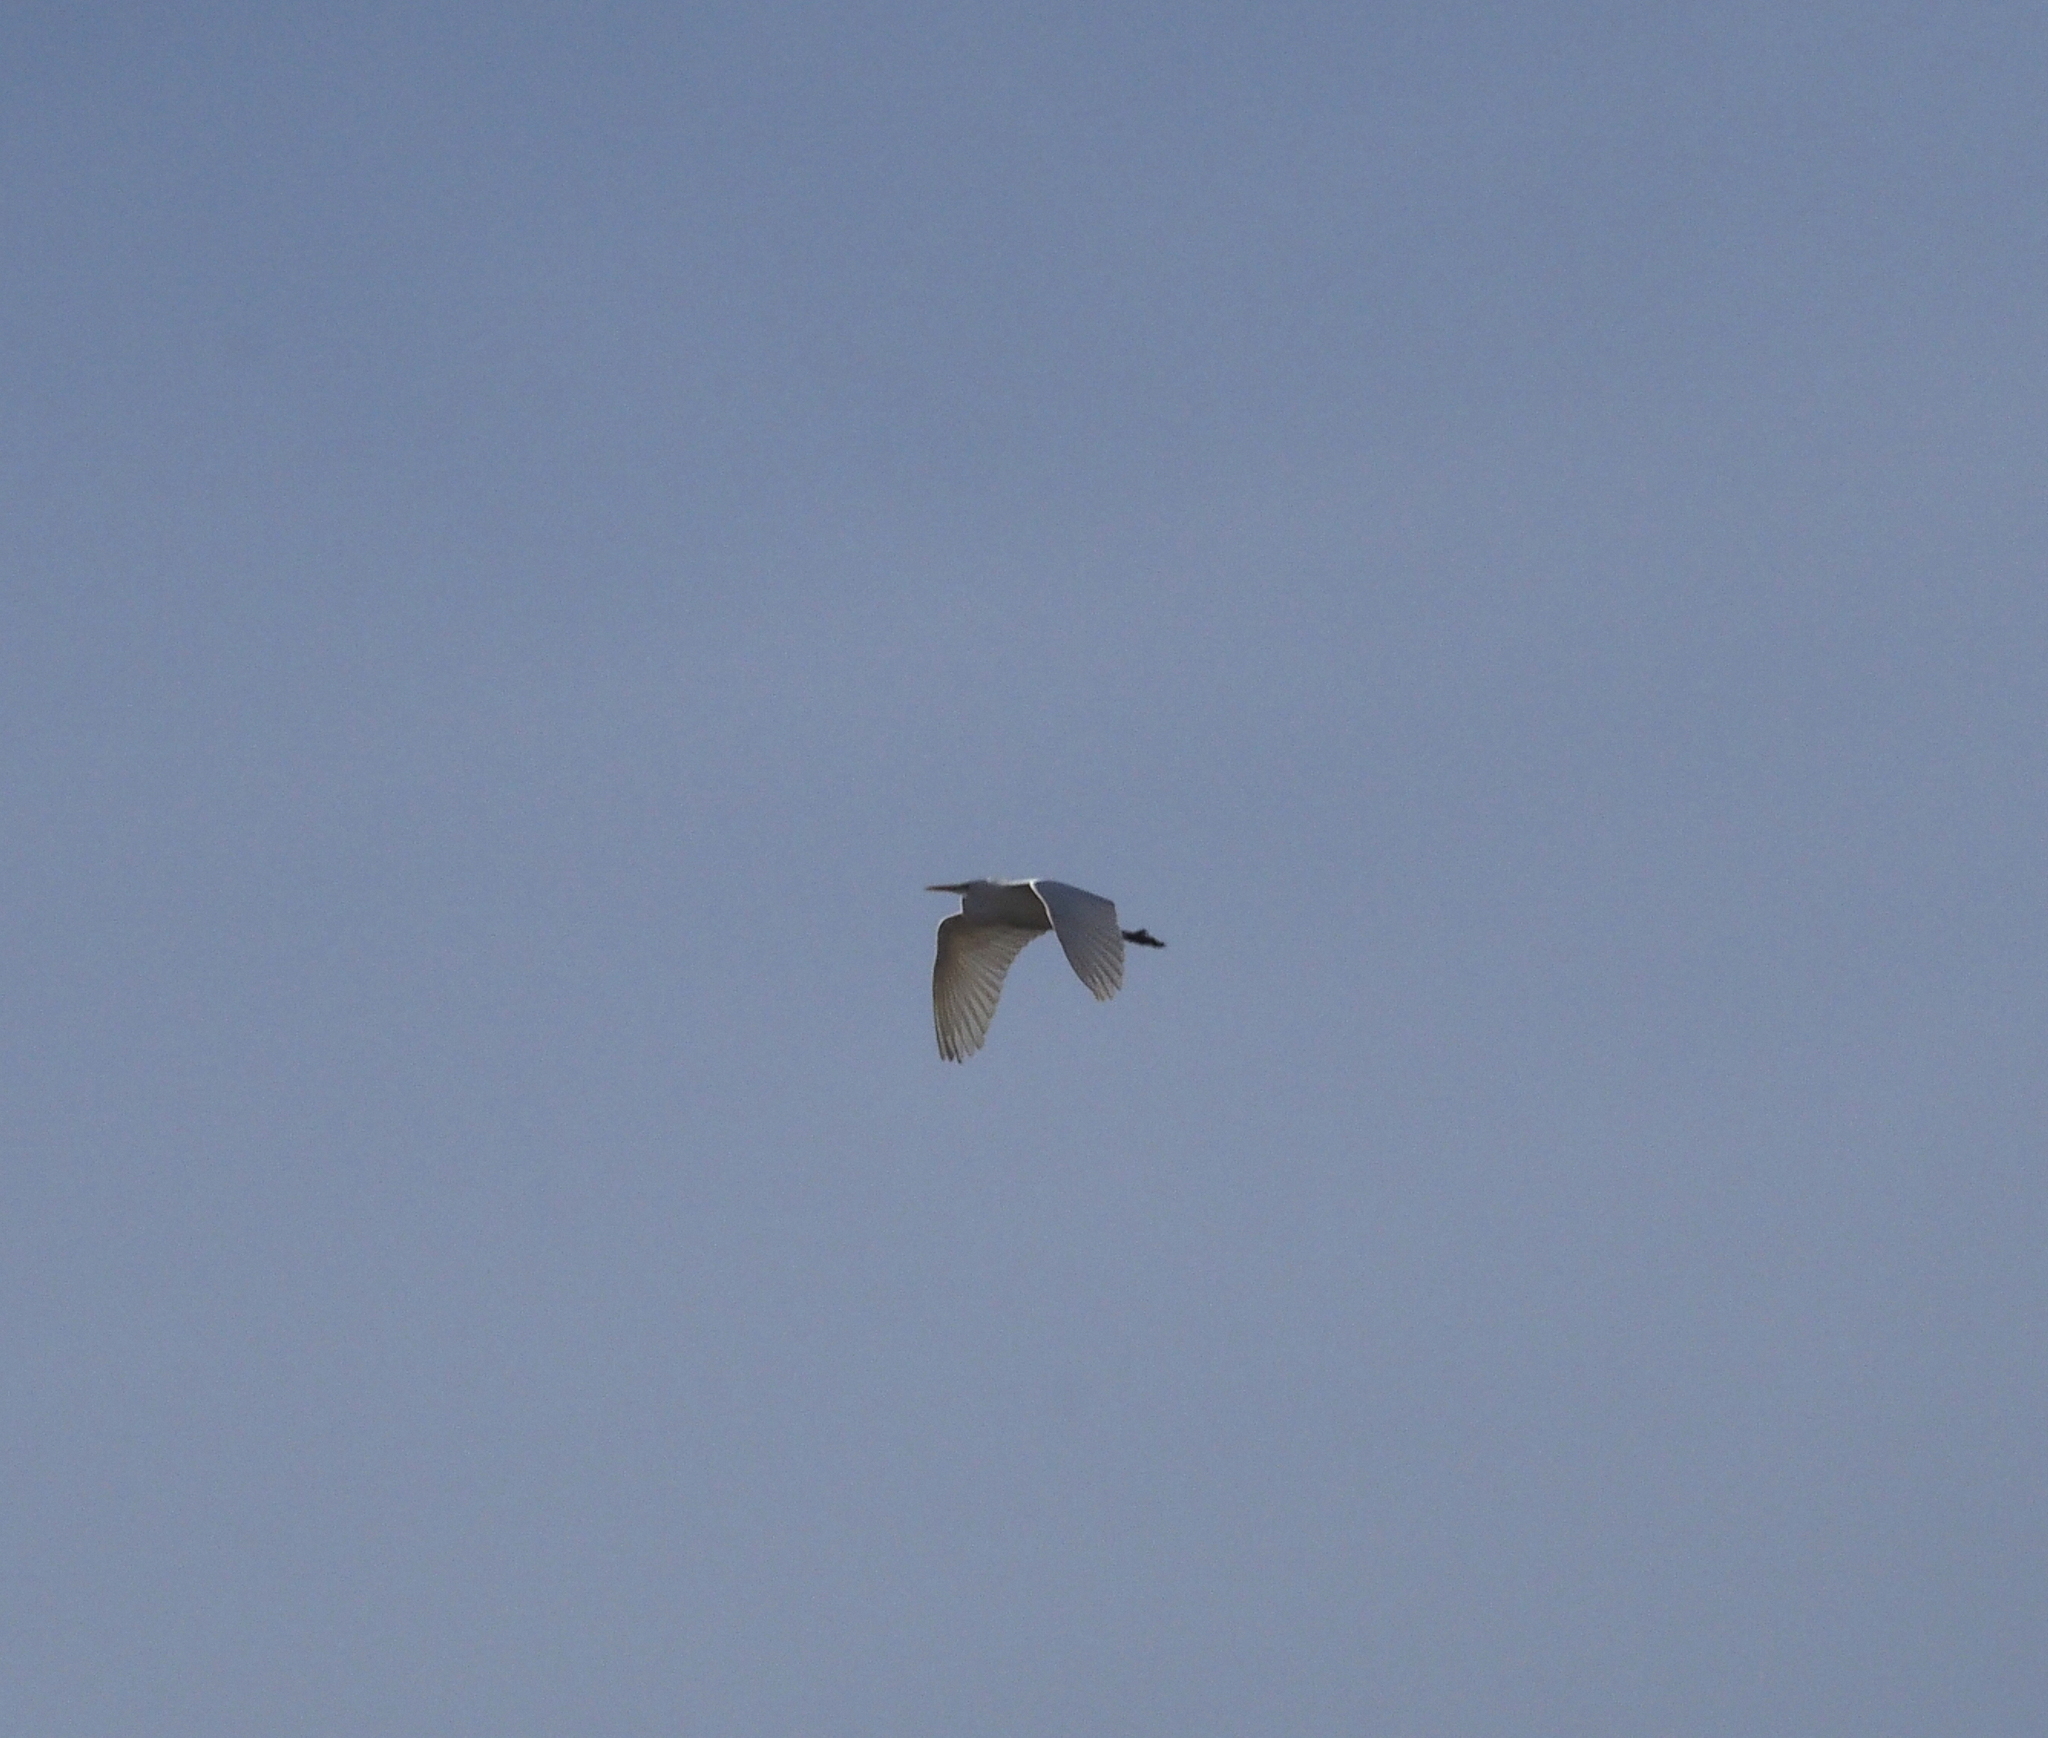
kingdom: Animalia
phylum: Chordata
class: Aves
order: Pelecaniformes
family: Ardeidae
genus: Ardea
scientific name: Ardea alba
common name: Great egret
